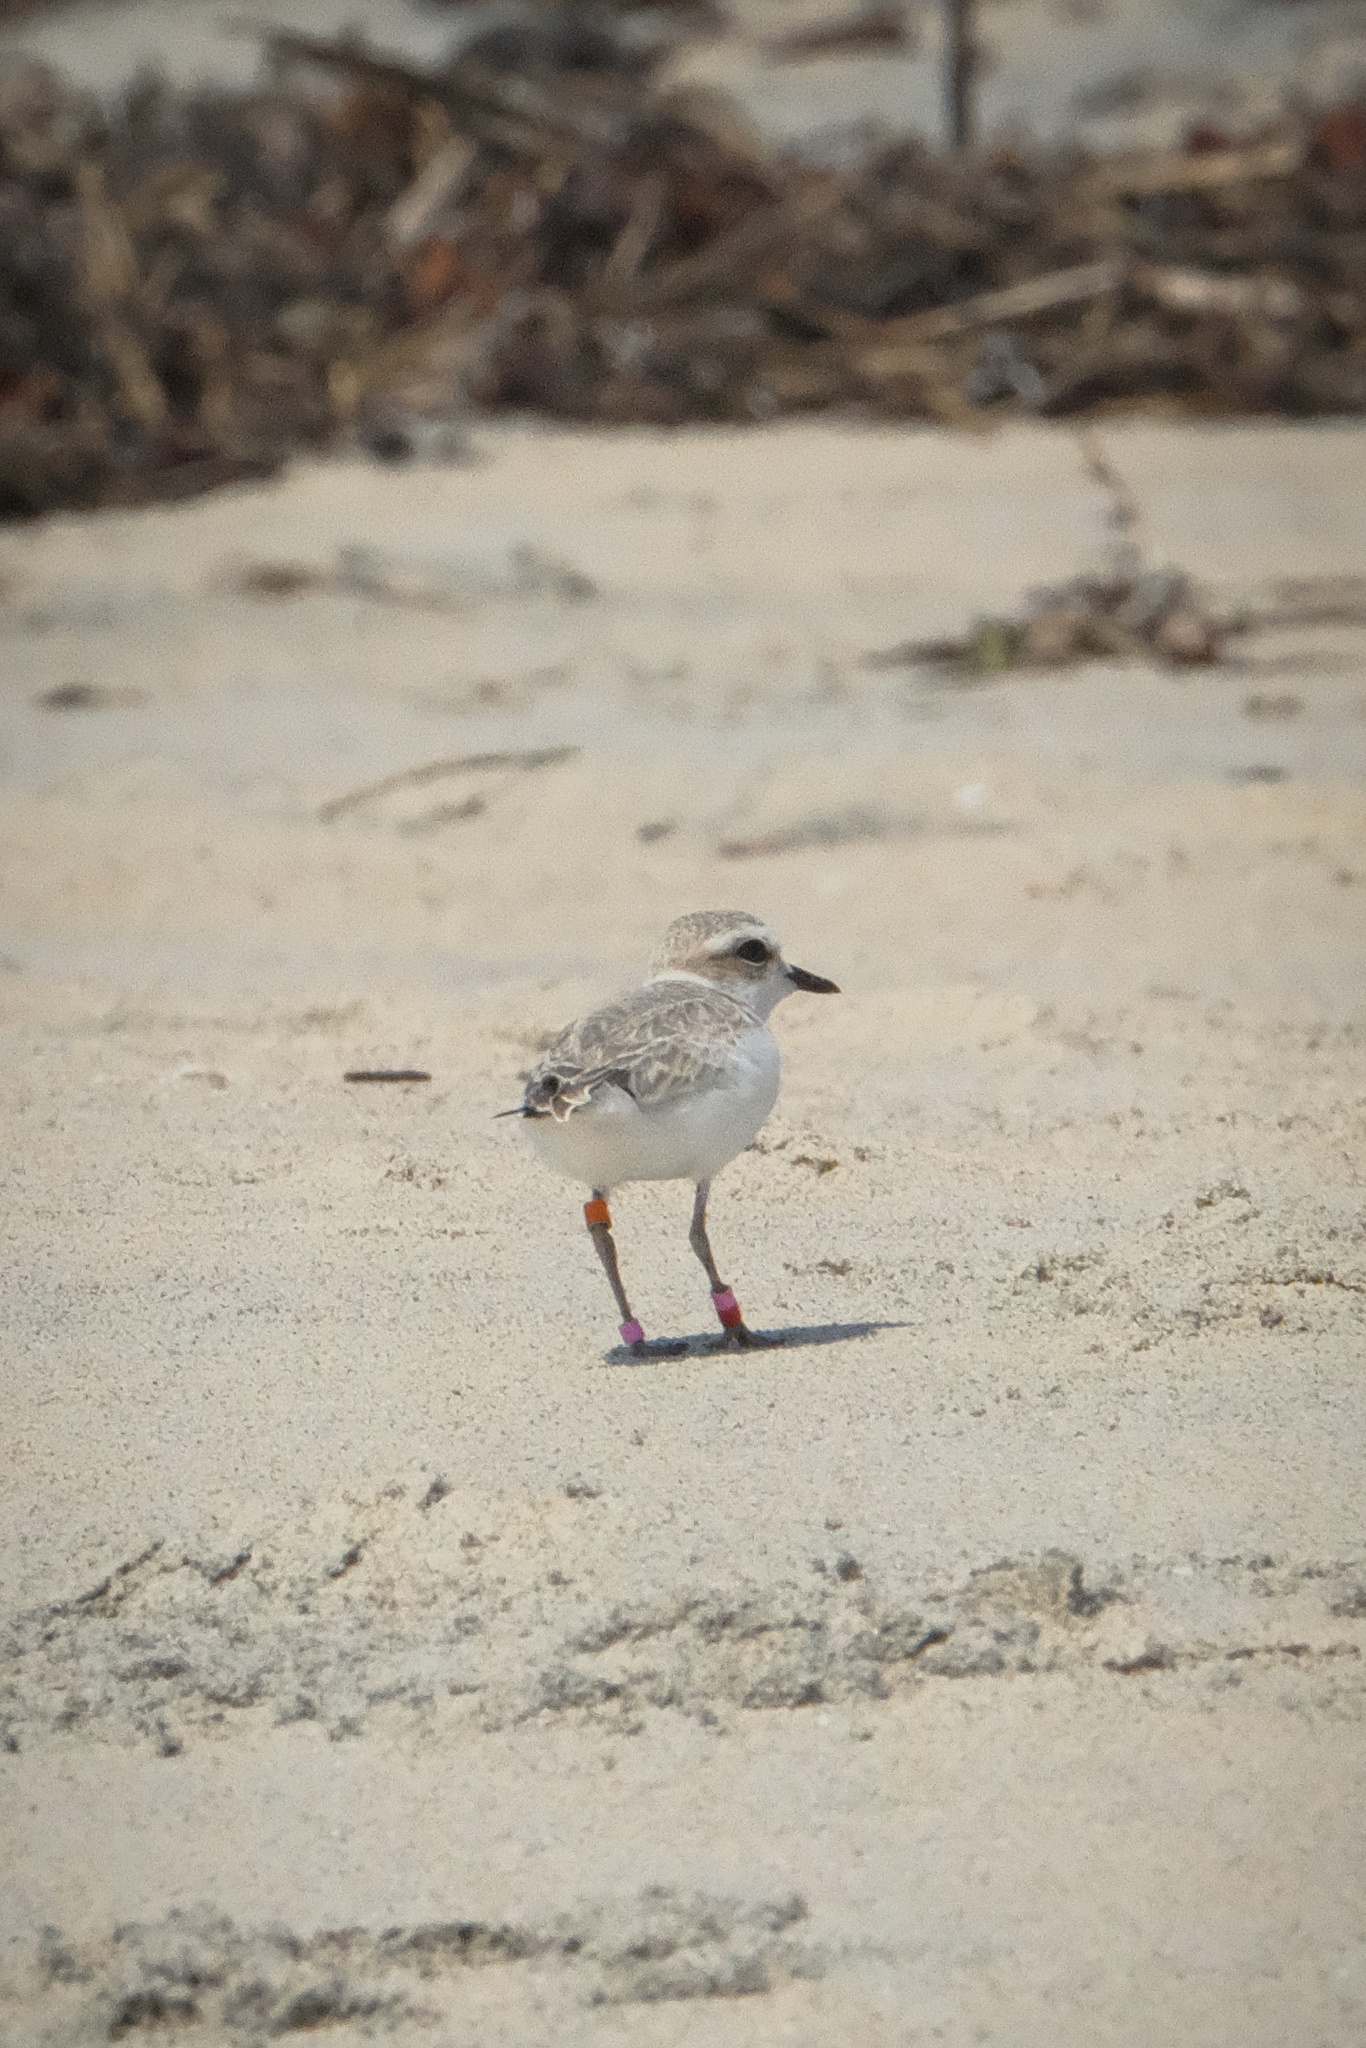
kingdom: Animalia
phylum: Chordata
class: Aves
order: Charadriiformes
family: Charadriidae
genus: Anarhynchus
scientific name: Anarhynchus
